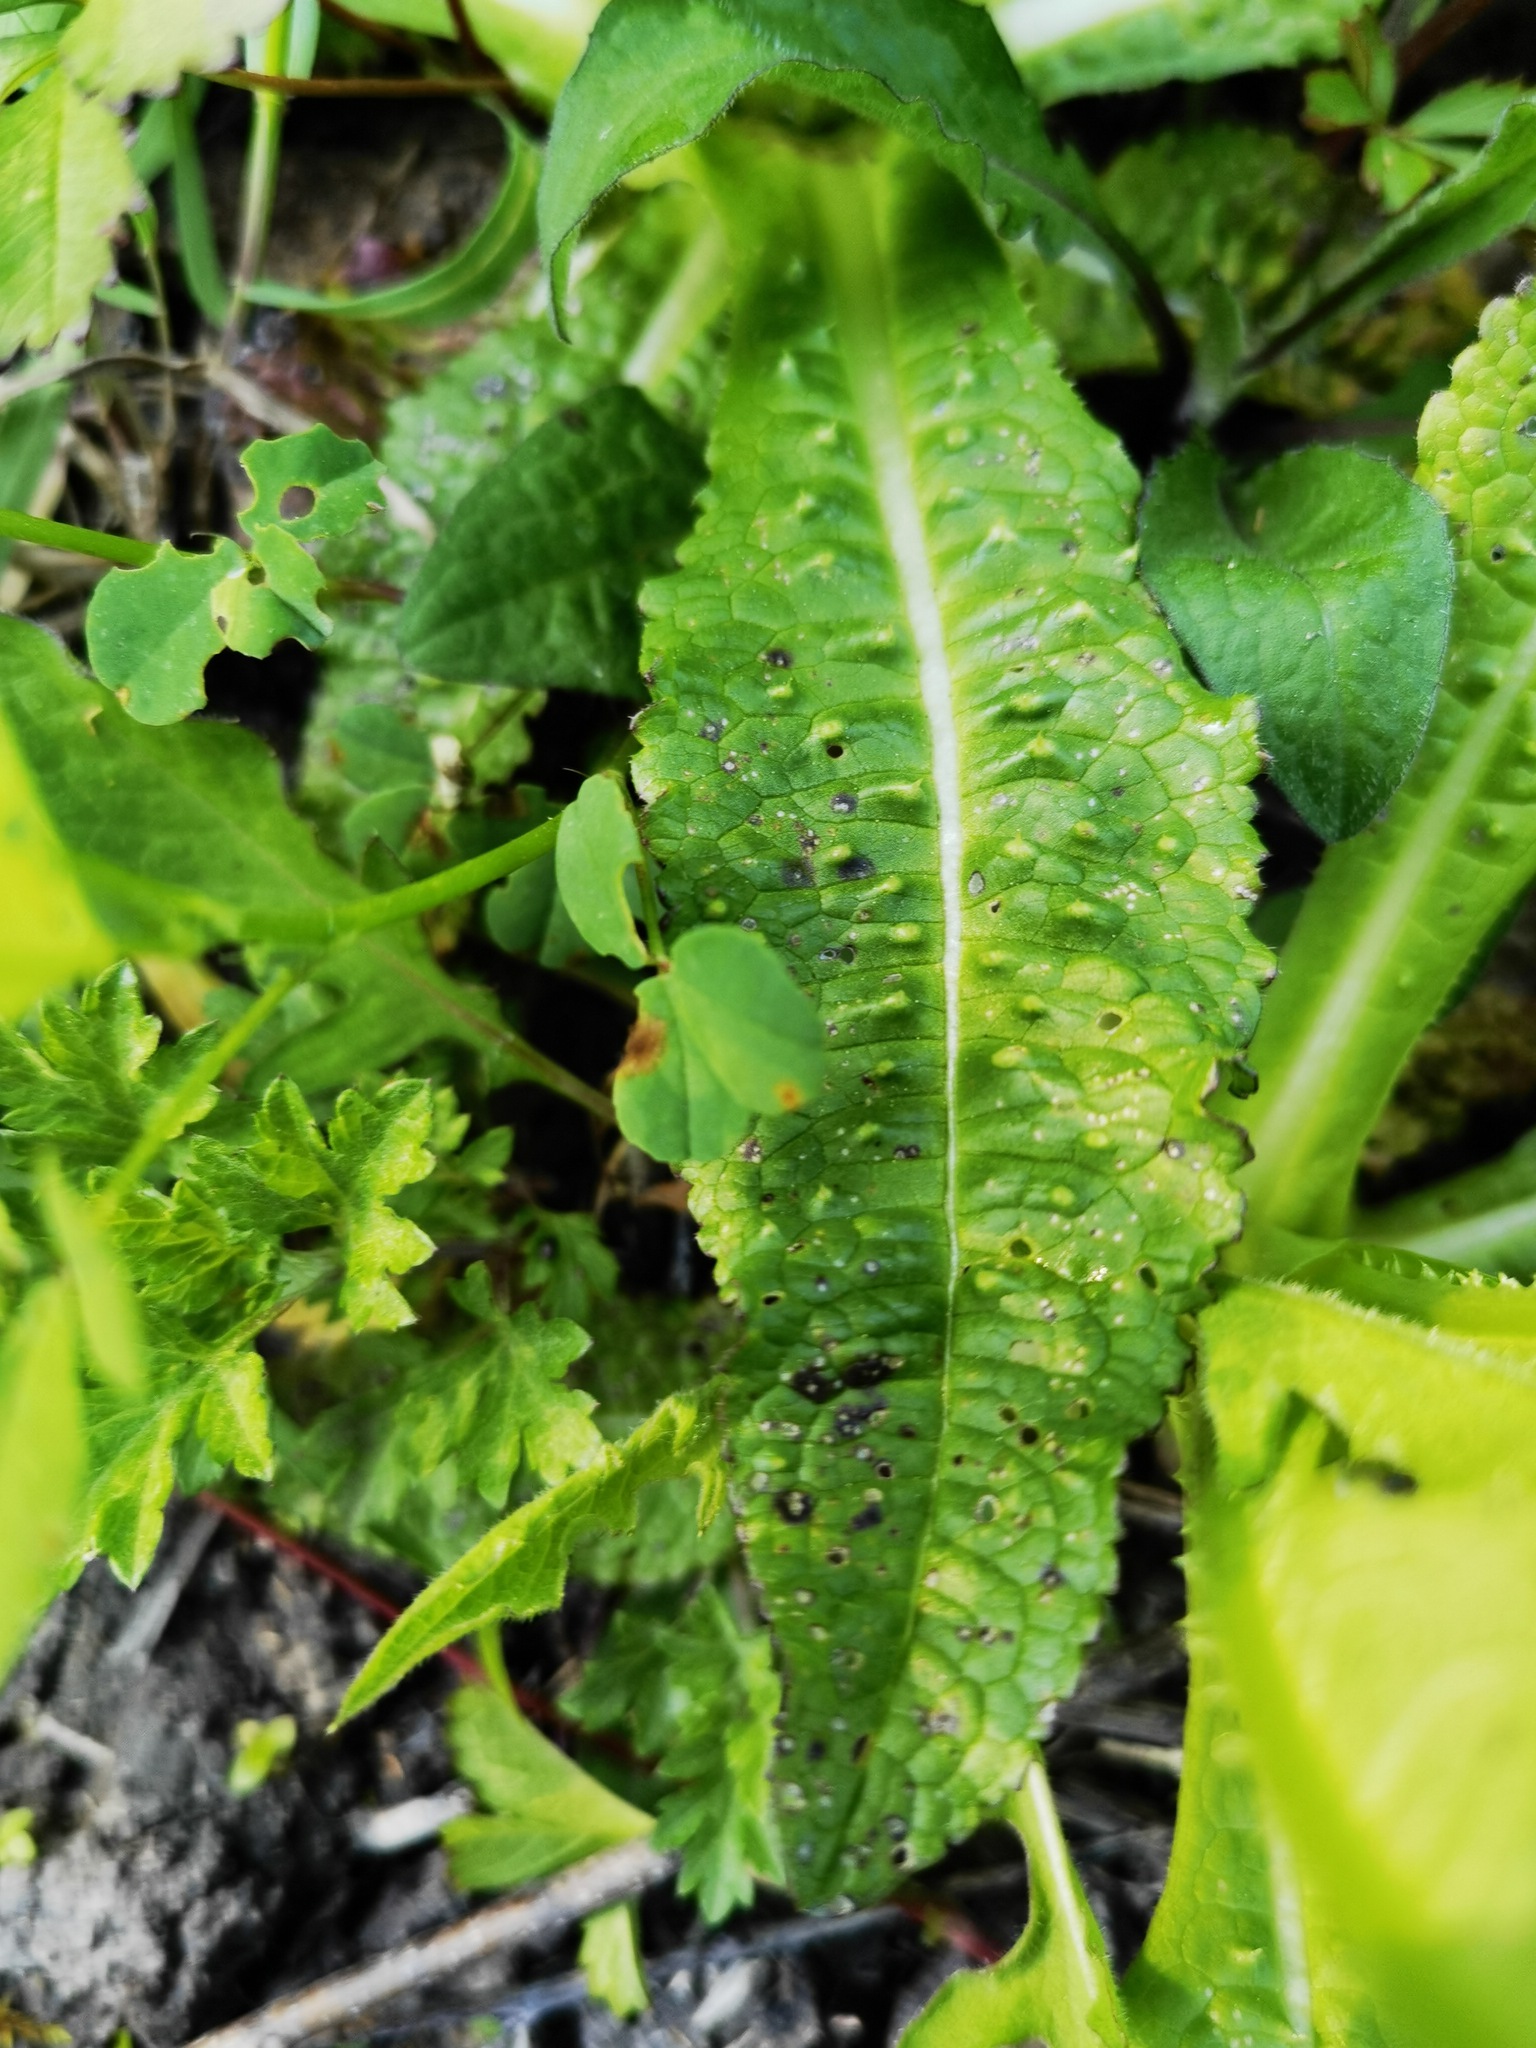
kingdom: Plantae
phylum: Tracheophyta
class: Magnoliopsida
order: Dipsacales
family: Caprifoliaceae
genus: Dipsacus
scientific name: Dipsacus fullonum
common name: Teasel
